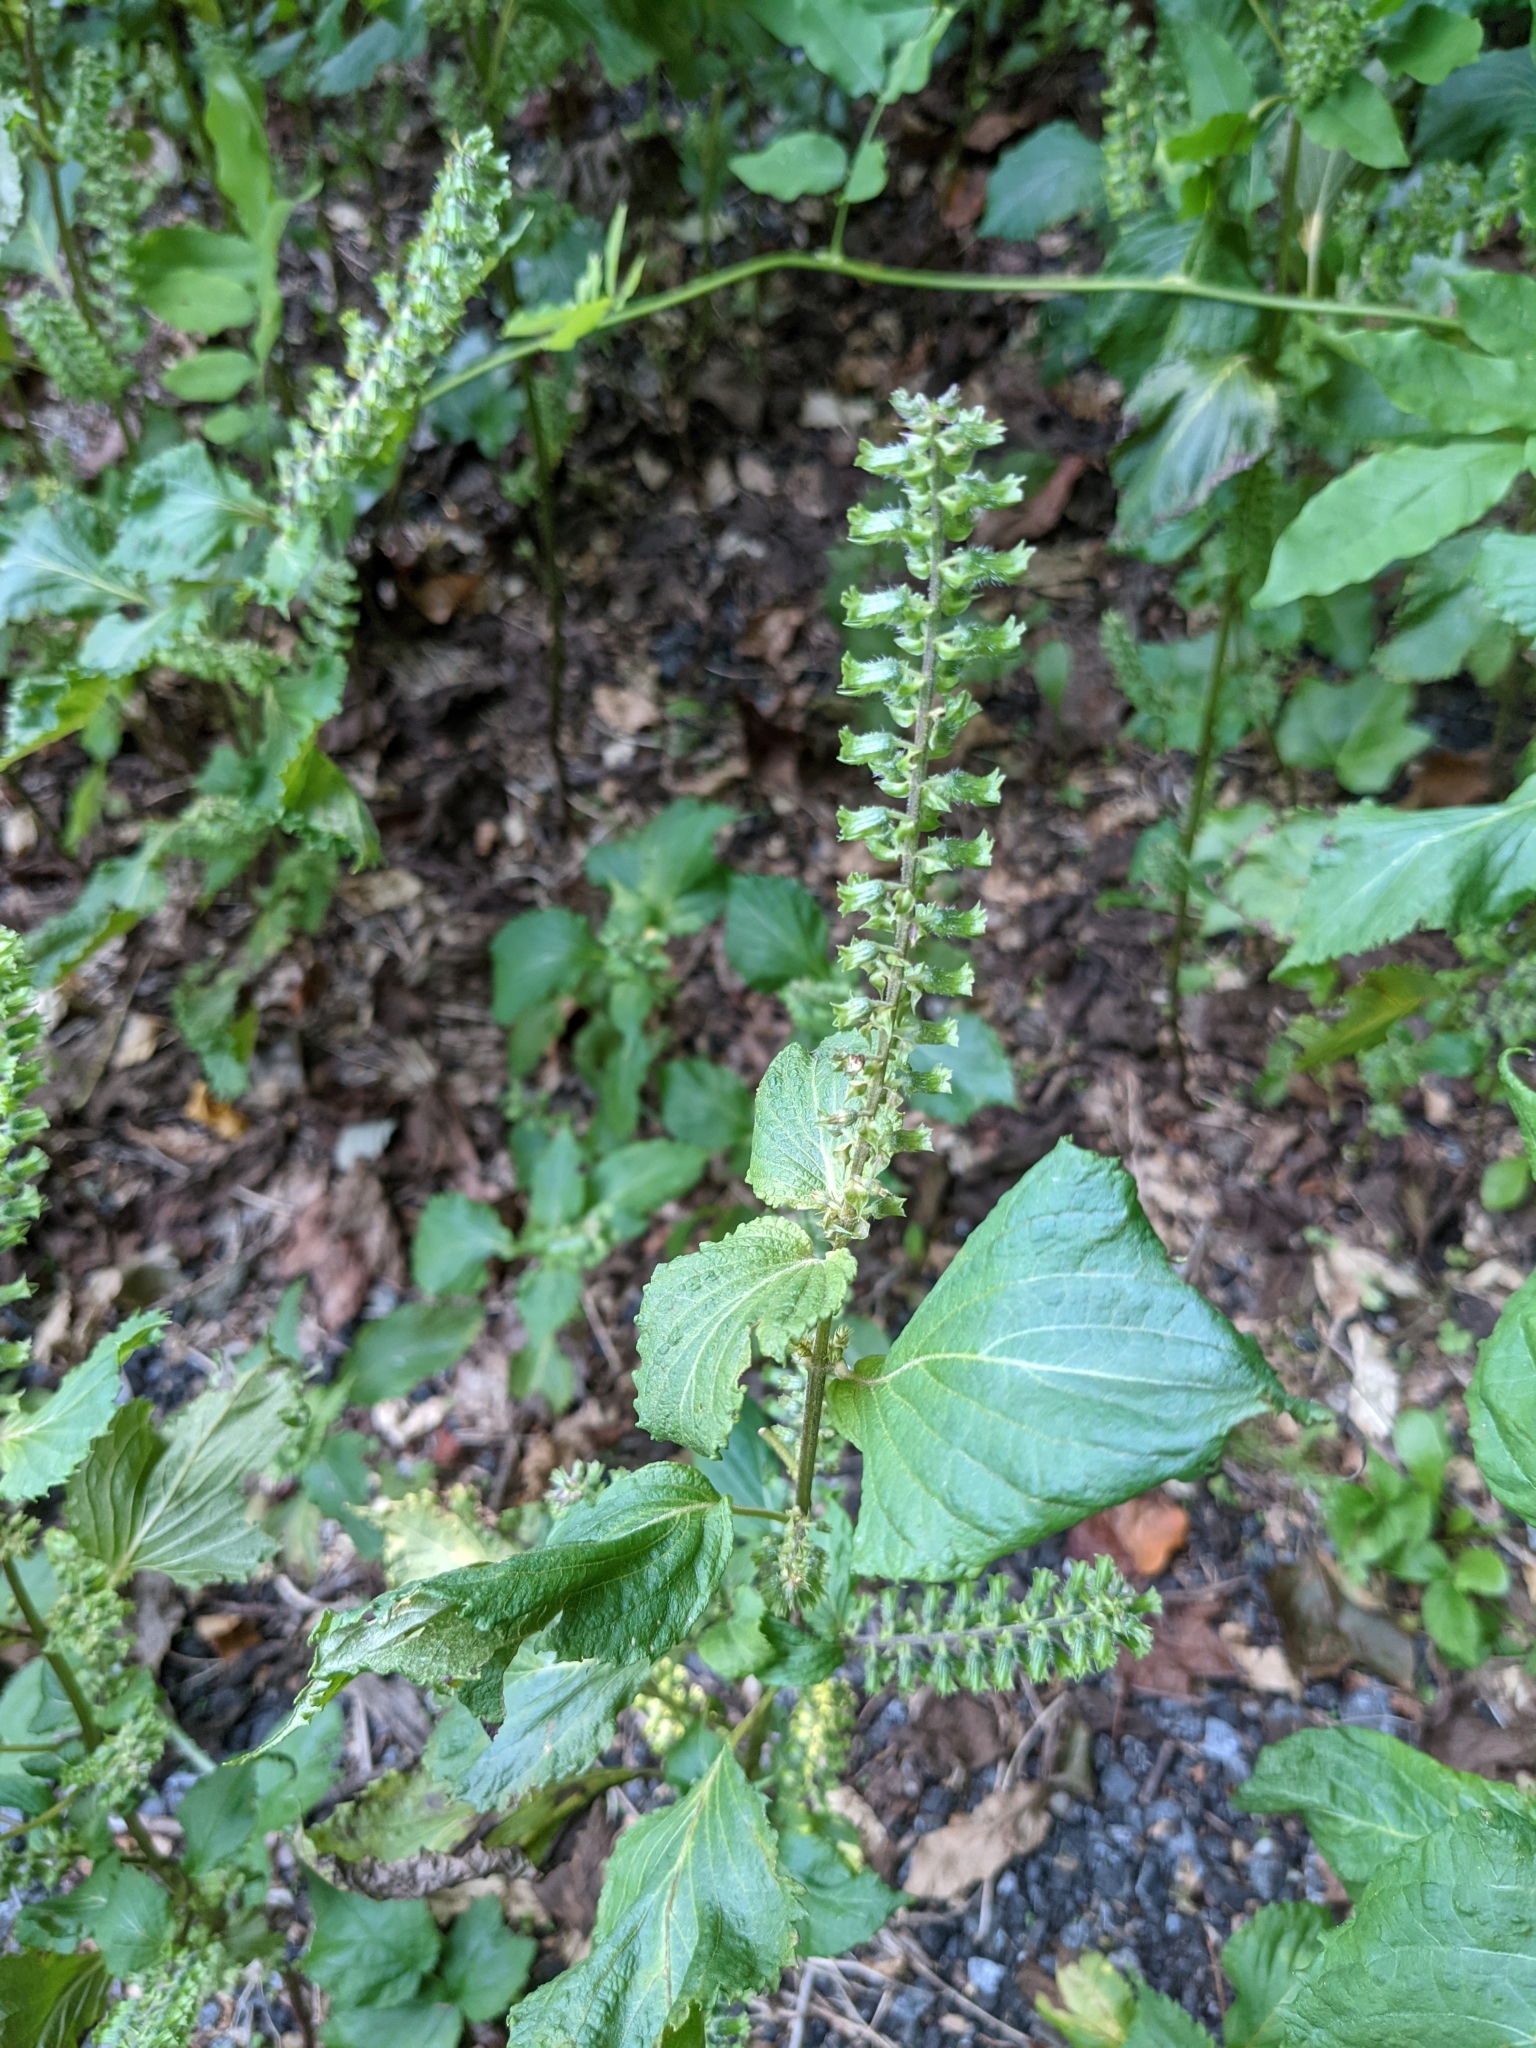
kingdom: Plantae
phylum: Tracheophyta
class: Magnoliopsida
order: Lamiales
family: Lamiaceae
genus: Perilla
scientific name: Perilla frutescens
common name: Perilla
